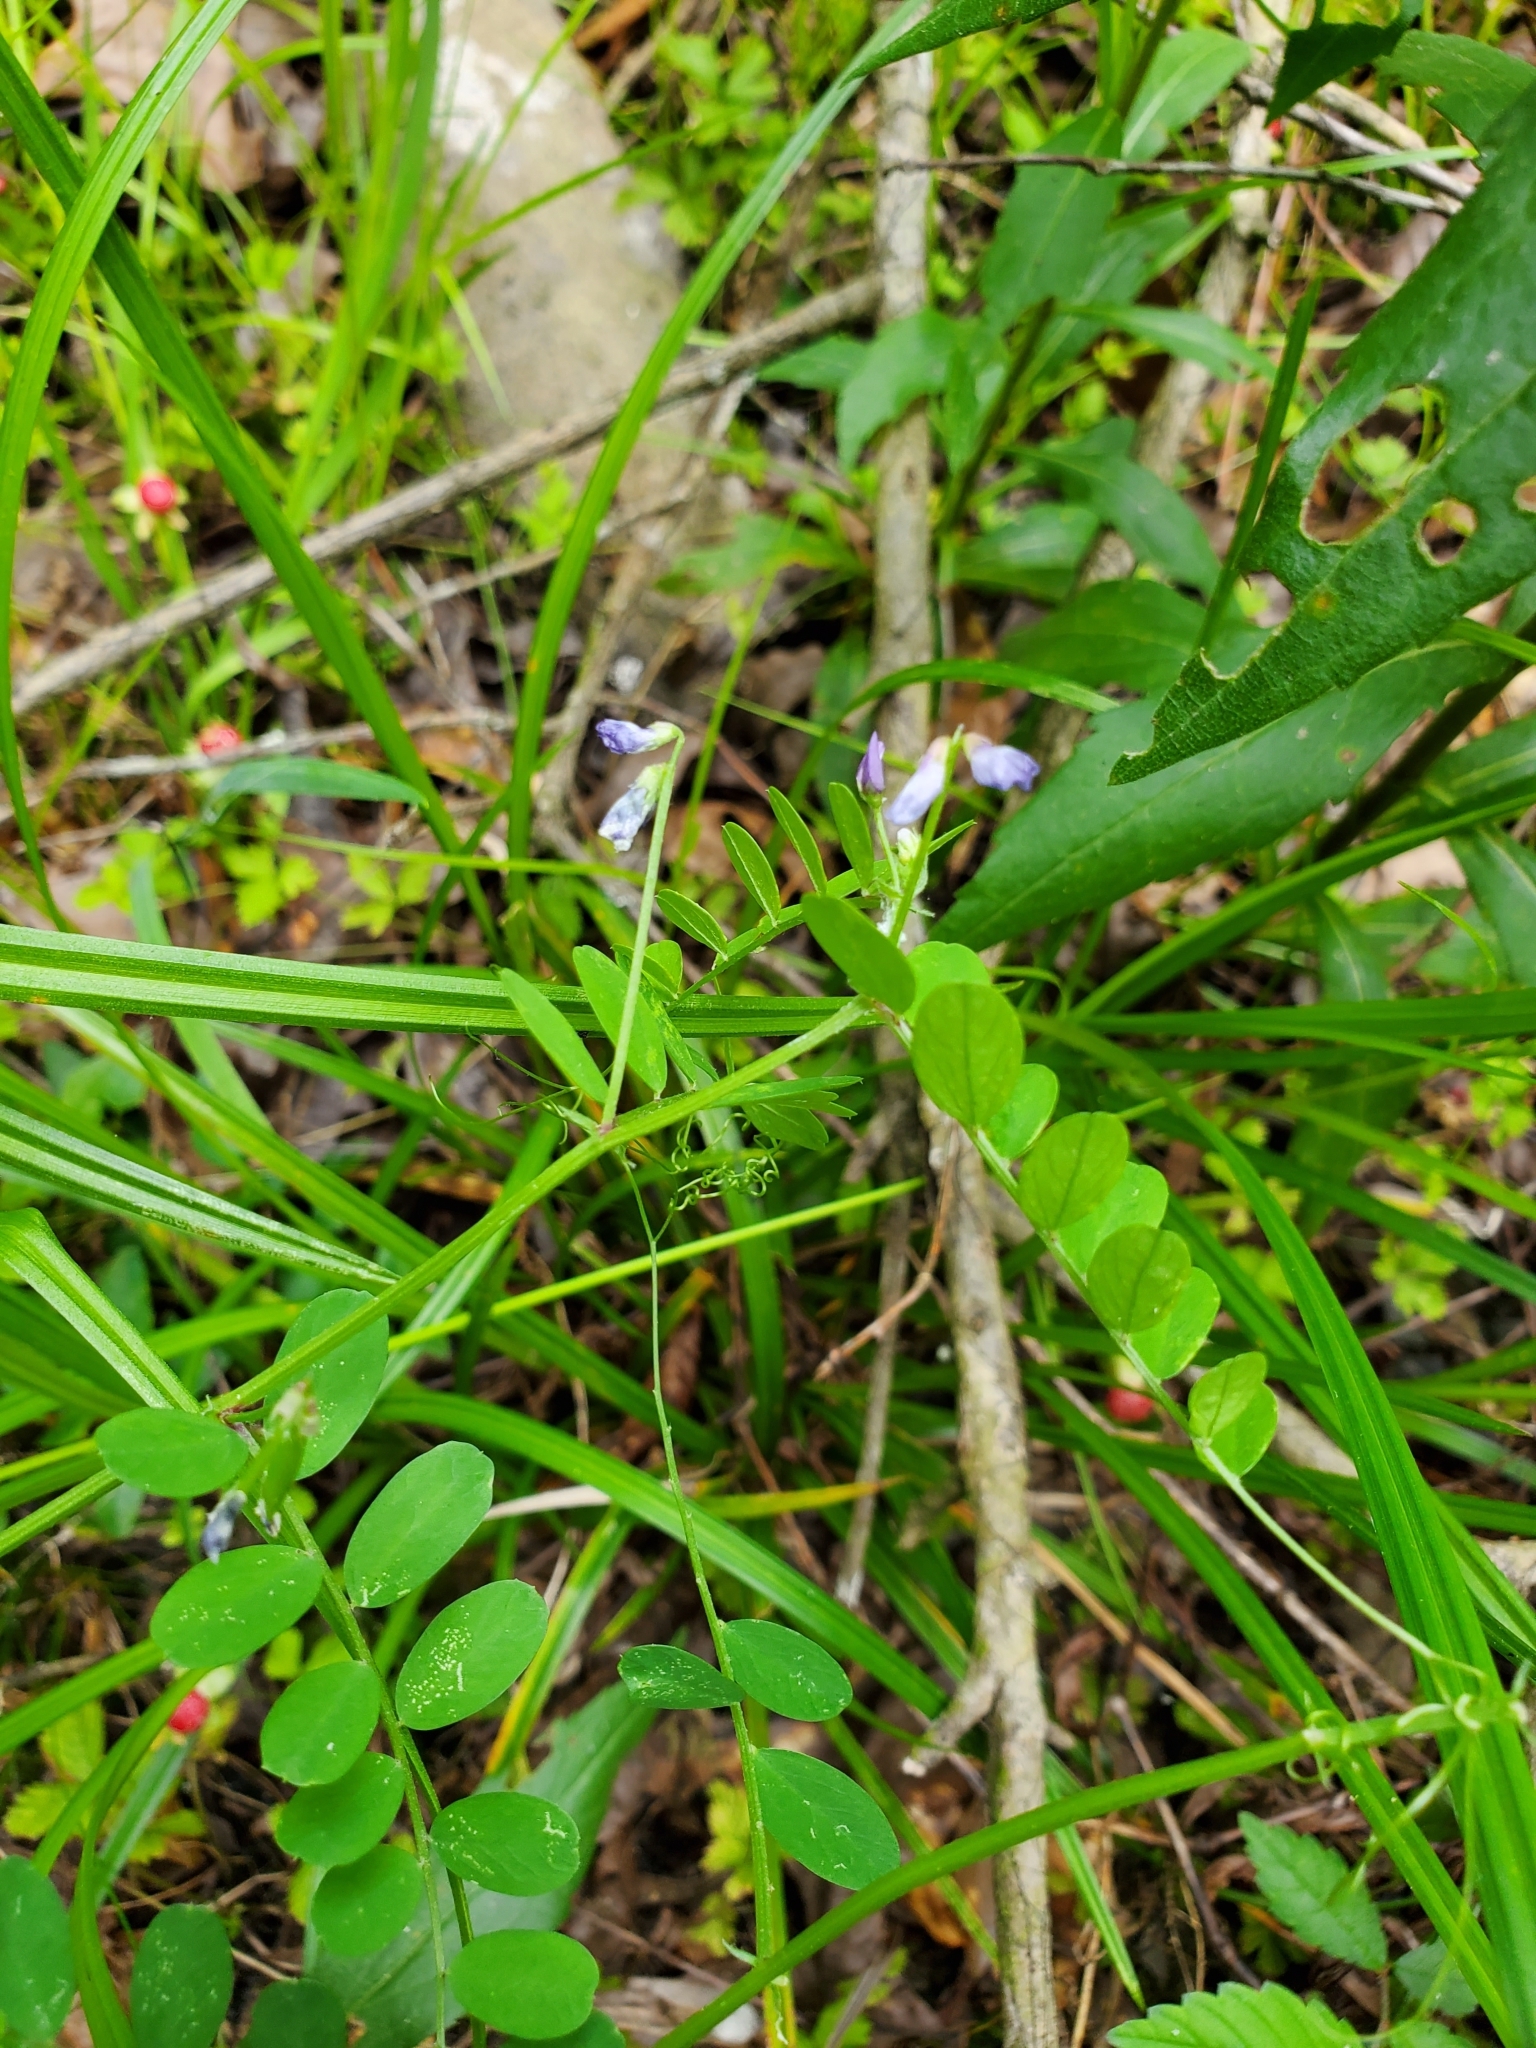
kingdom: Plantae
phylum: Tracheophyta
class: Magnoliopsida
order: Fabales
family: Fabaceae
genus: Vicia
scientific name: Vicia ludoviciana
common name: Louisiana vetch
